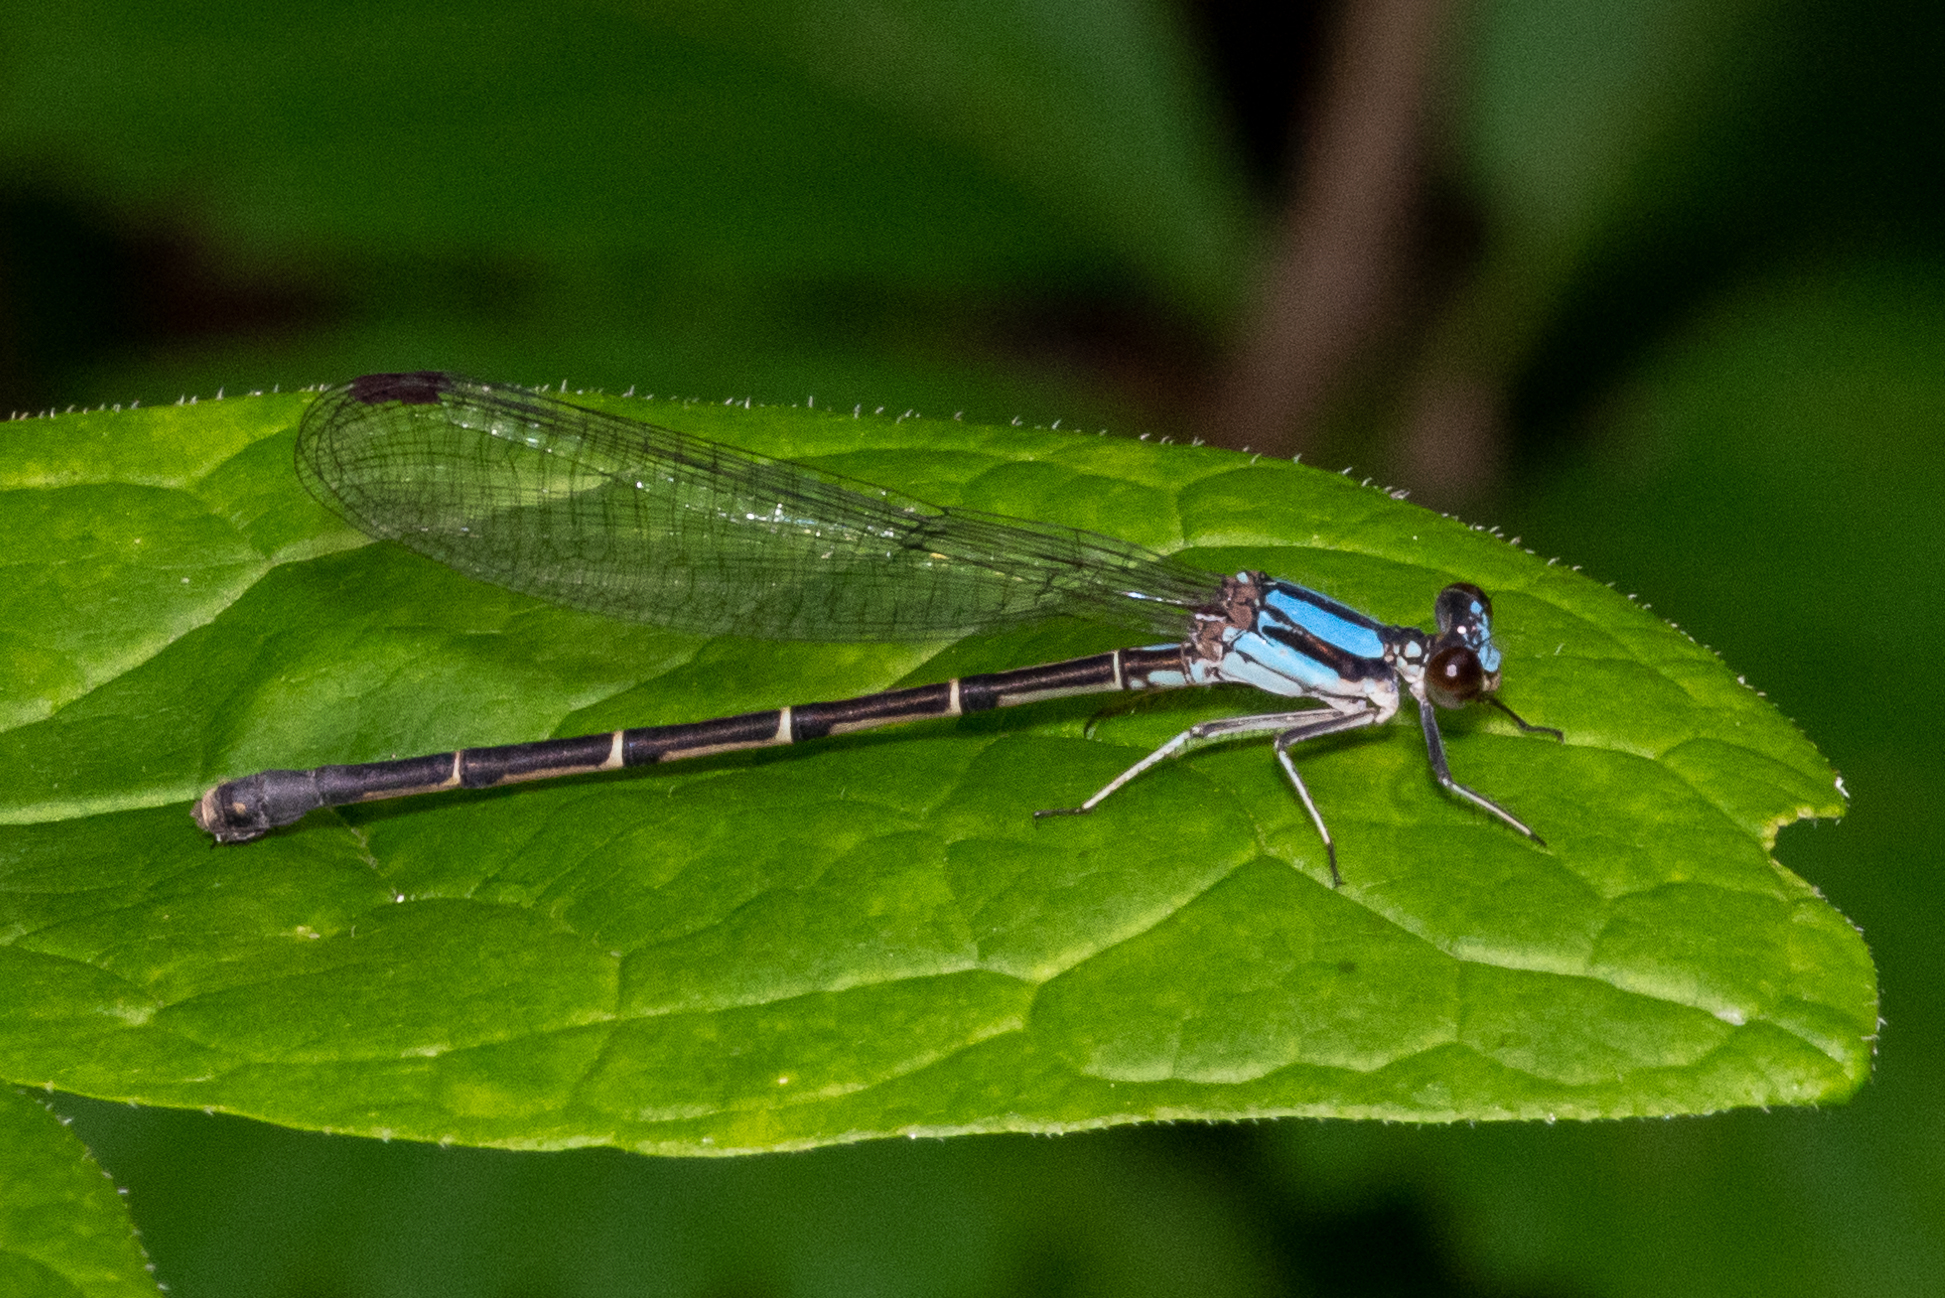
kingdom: Animalia
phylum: Arthropoda
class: Insecta
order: Odonata
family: Coenagrionidae
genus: Argia
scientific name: Argia tibialis
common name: Blue-tipped dancer
